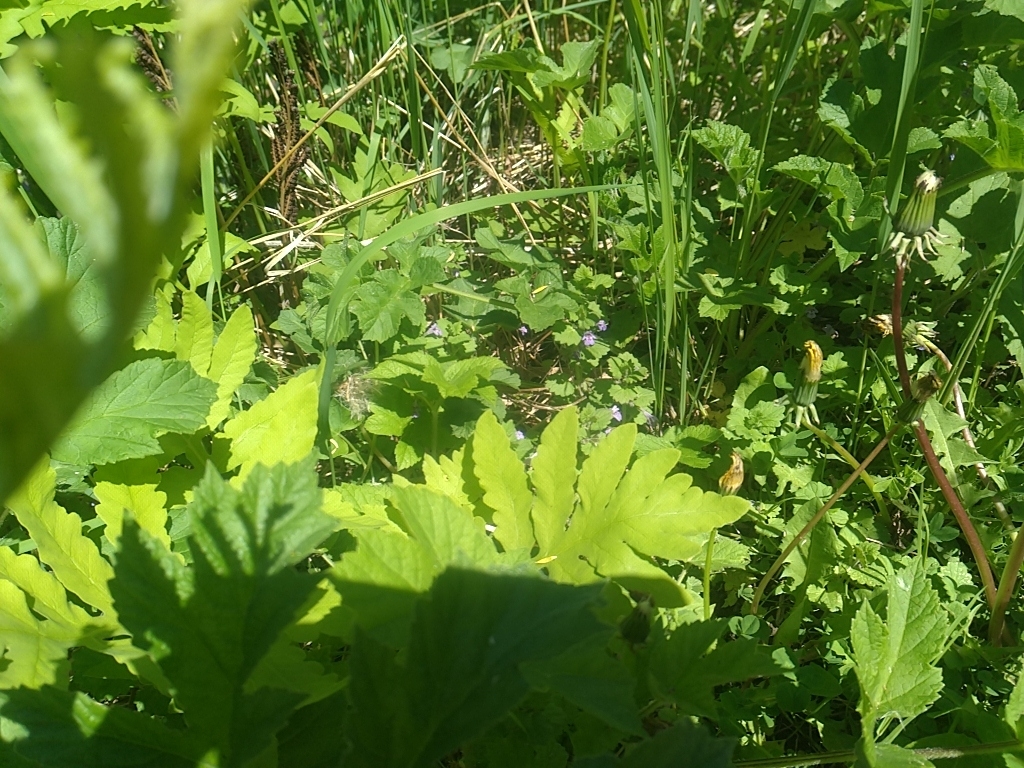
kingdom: Plantae
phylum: Tracheophyta
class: Magnoliopsida
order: Lamiales
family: Lamiaceae
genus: Glechoma
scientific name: Glechoma hederacea
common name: Ground ivy
